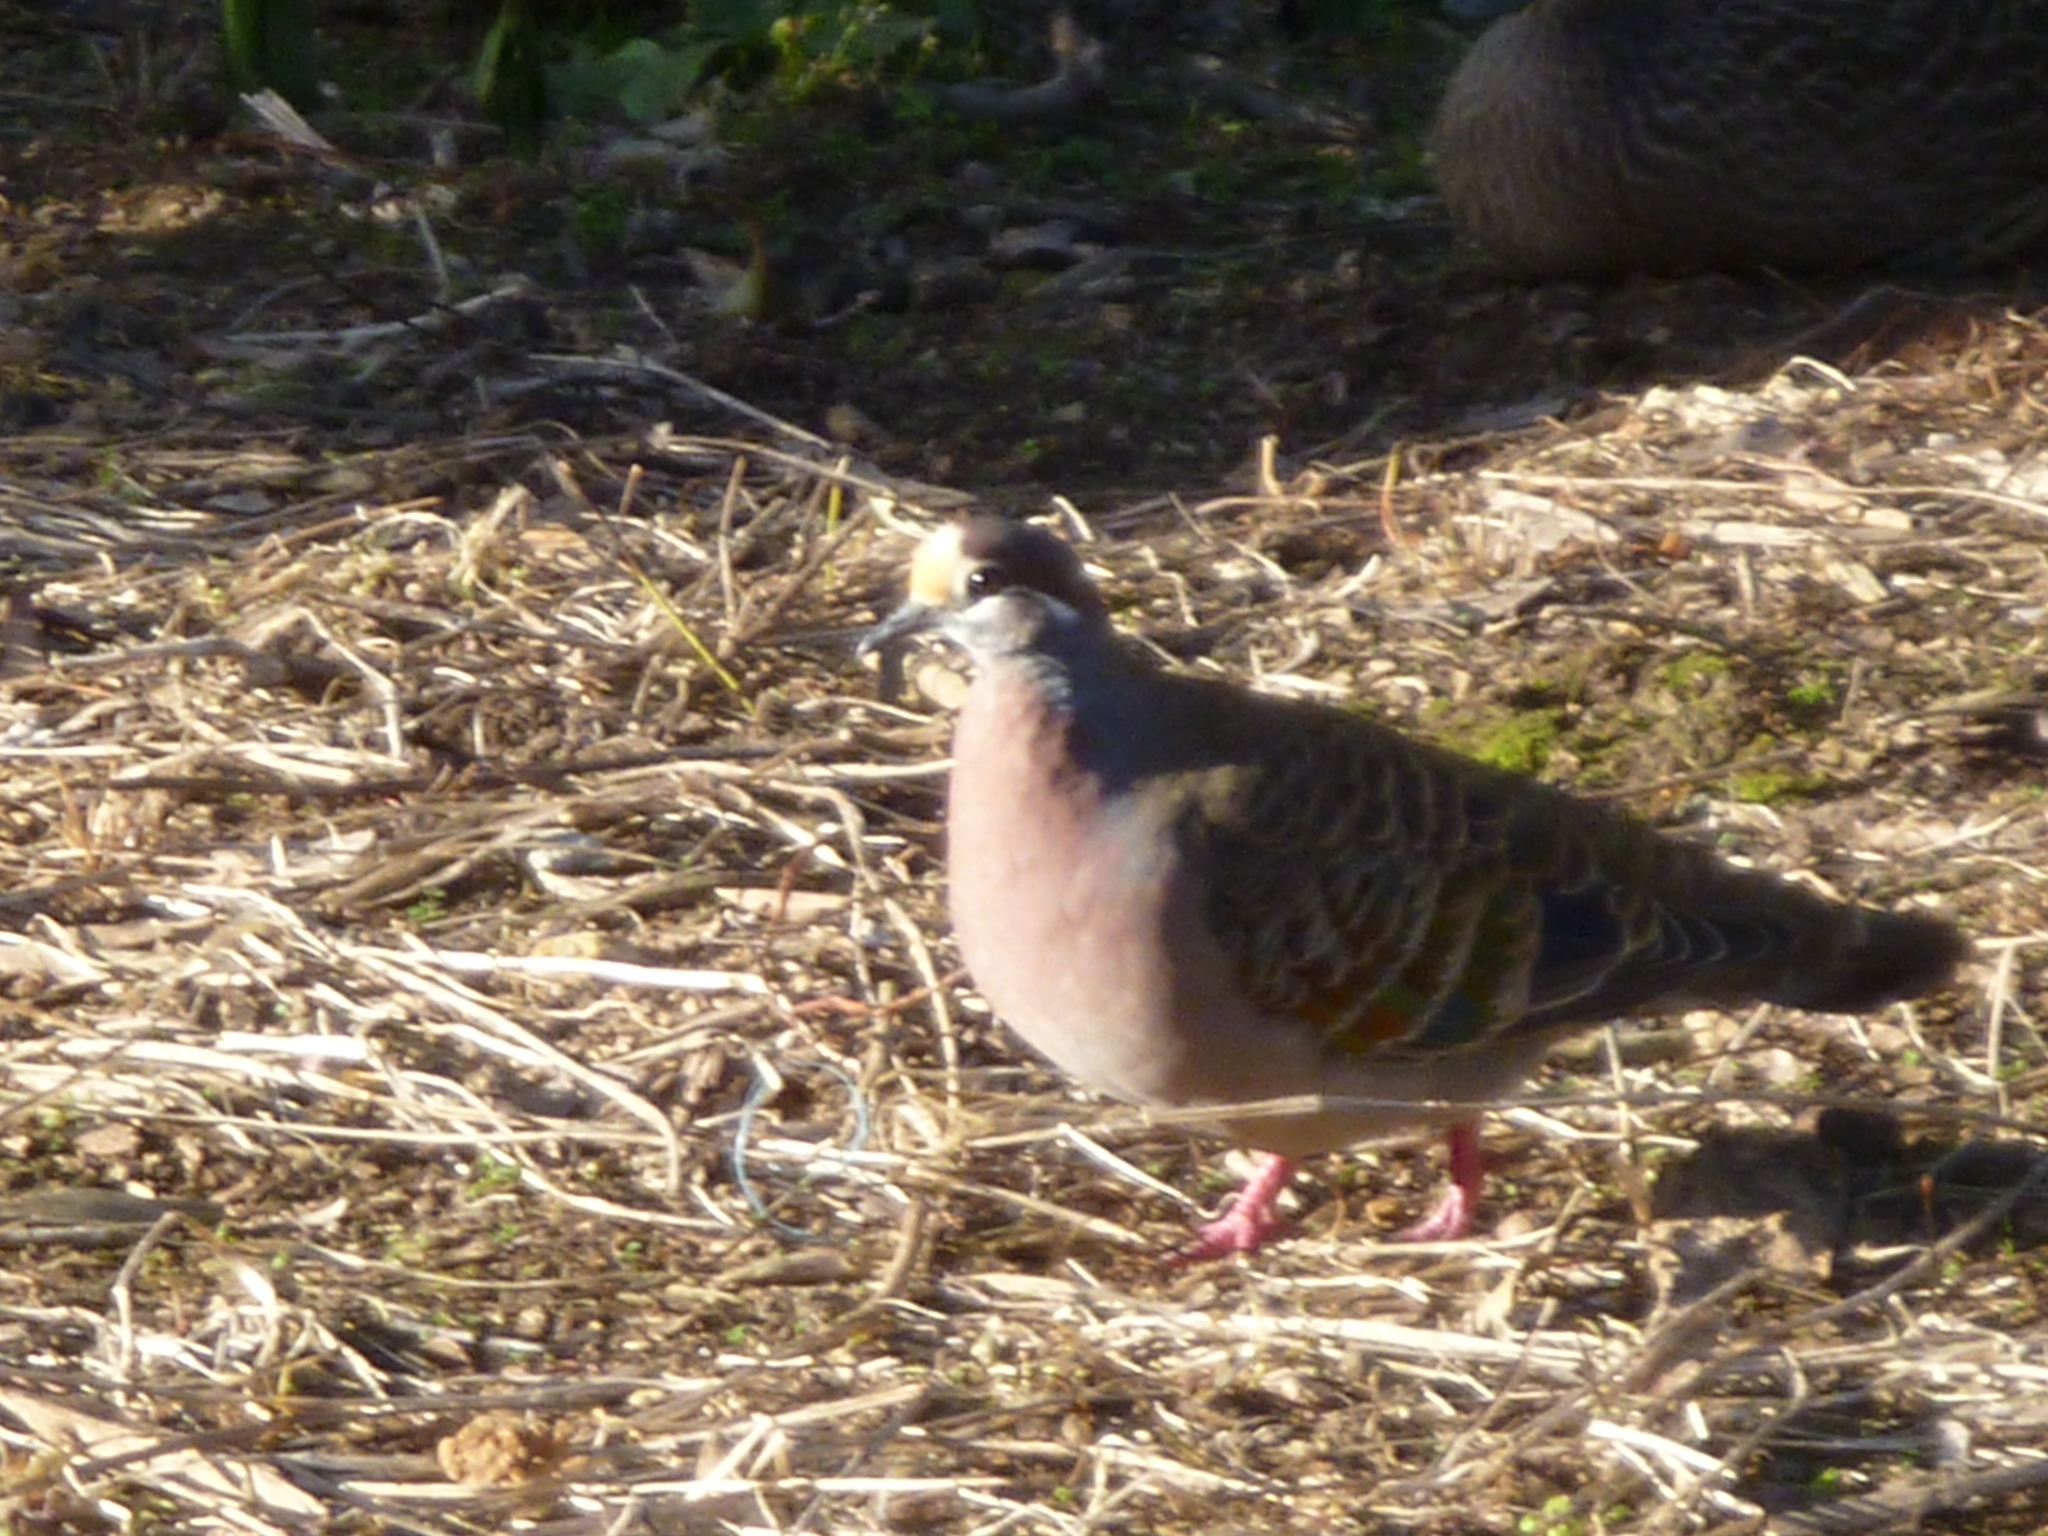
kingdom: Animalia
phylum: Chordata
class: Aves
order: Columbiformes
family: Columbidae
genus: Phaps
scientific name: Phaps chalcoptera
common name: Common bronzewing
